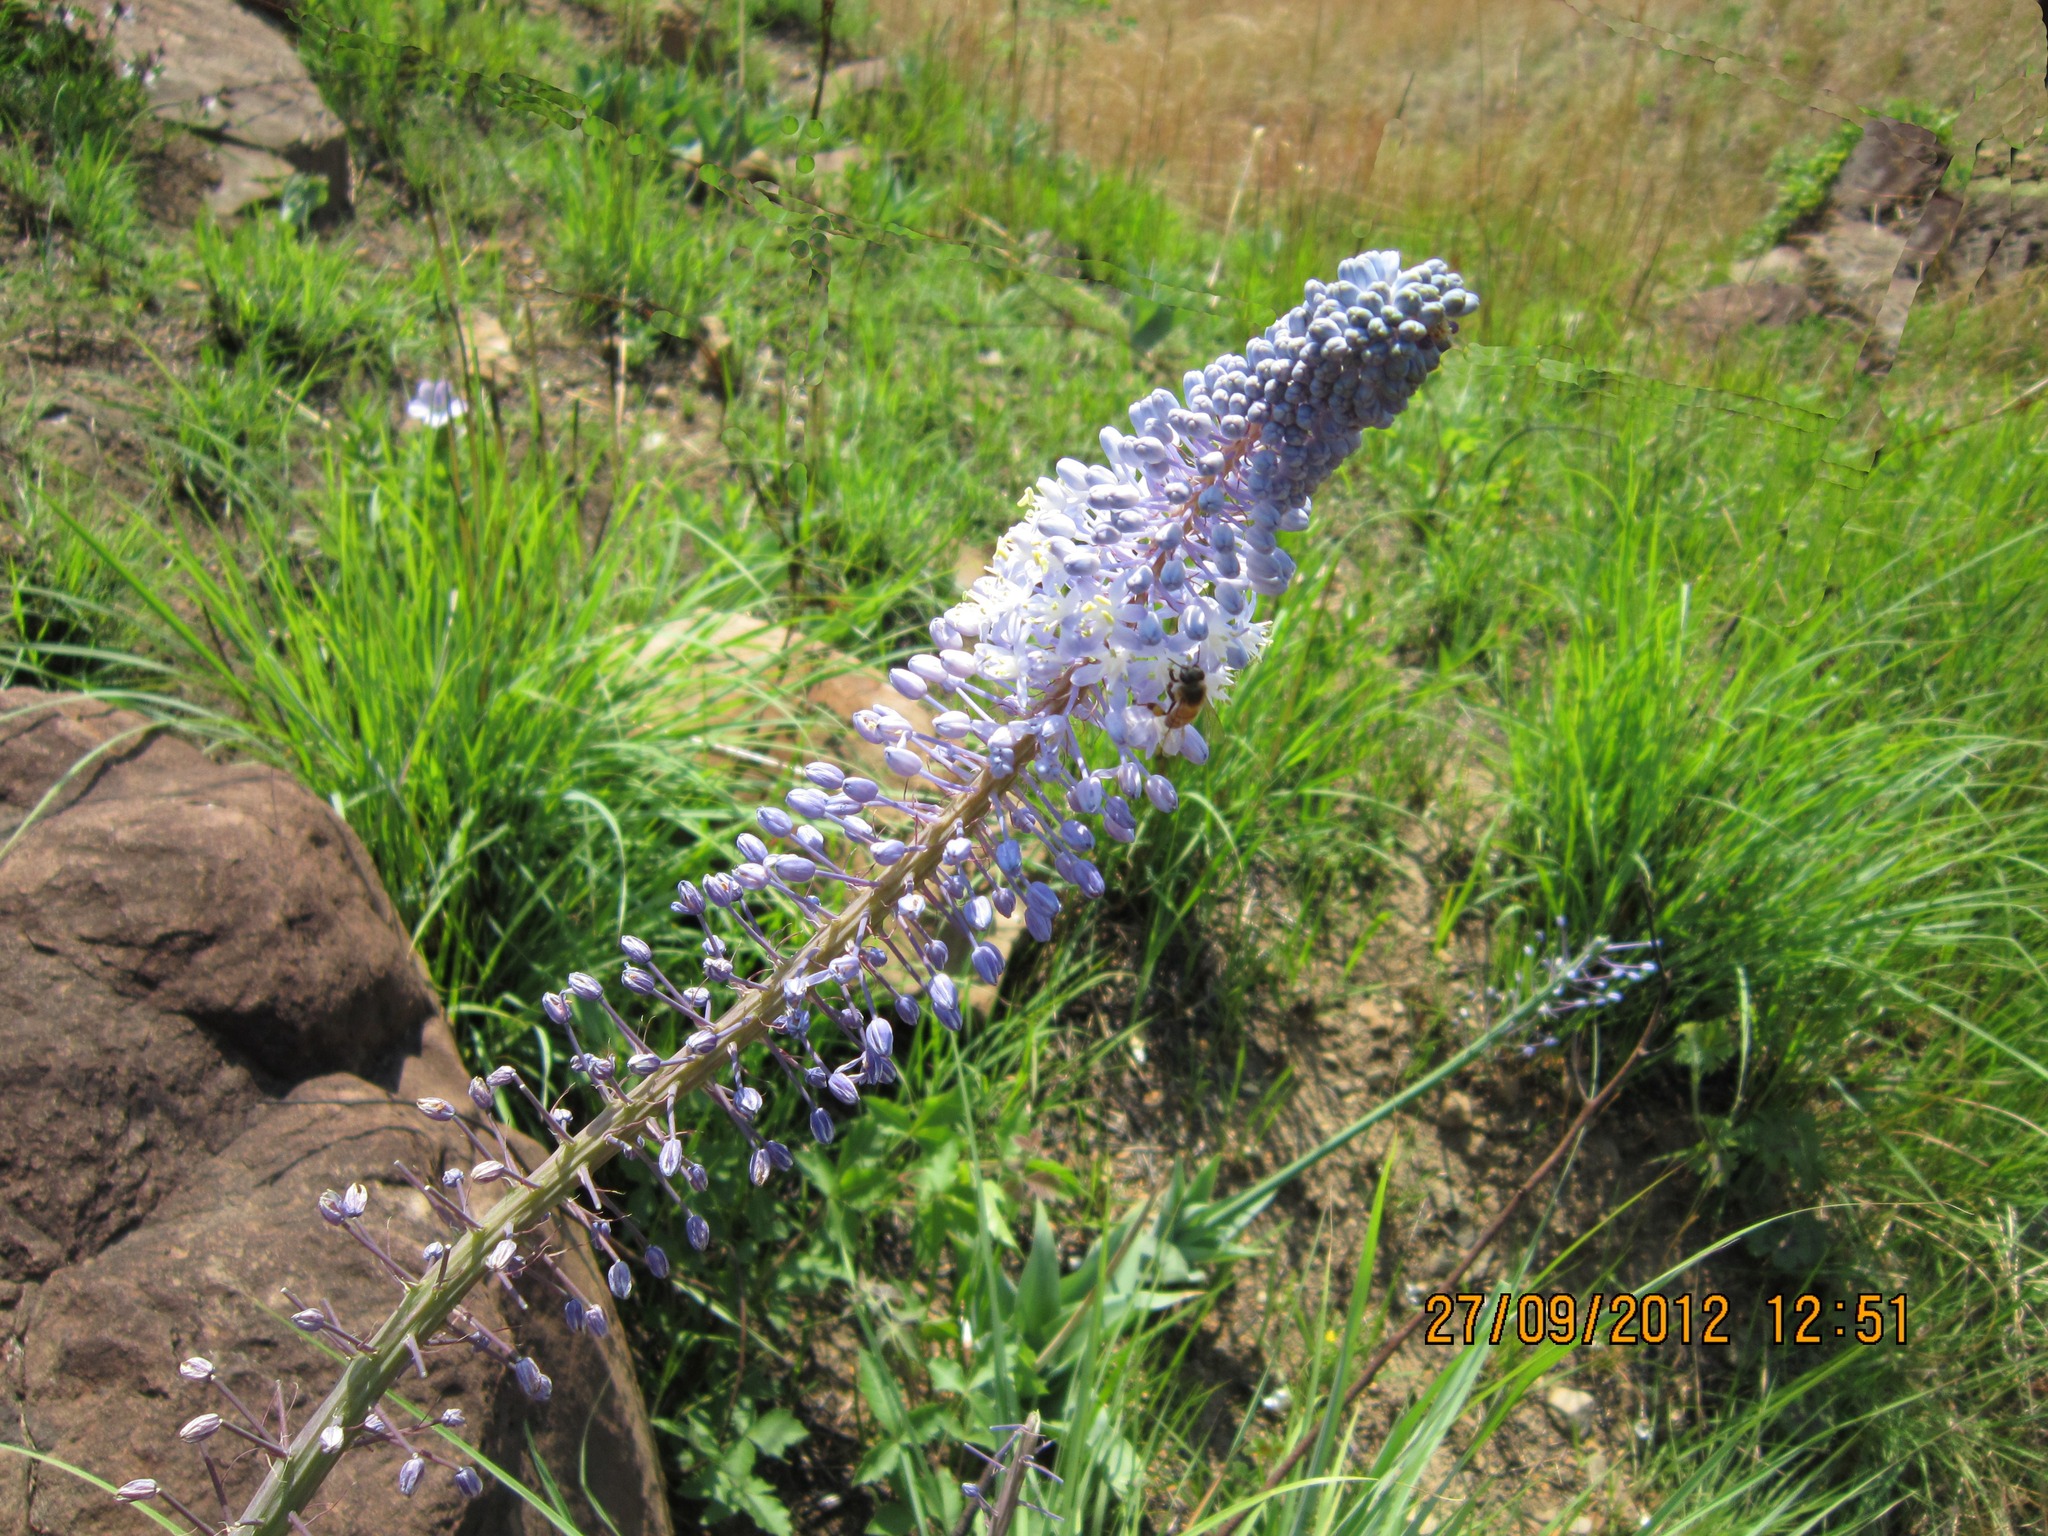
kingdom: Plantae
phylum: Tracheophyta
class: Liliopsida
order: Asparagales
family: Asparagaceae
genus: Merwilla
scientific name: Merwilla plumbea
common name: Blue-squill
